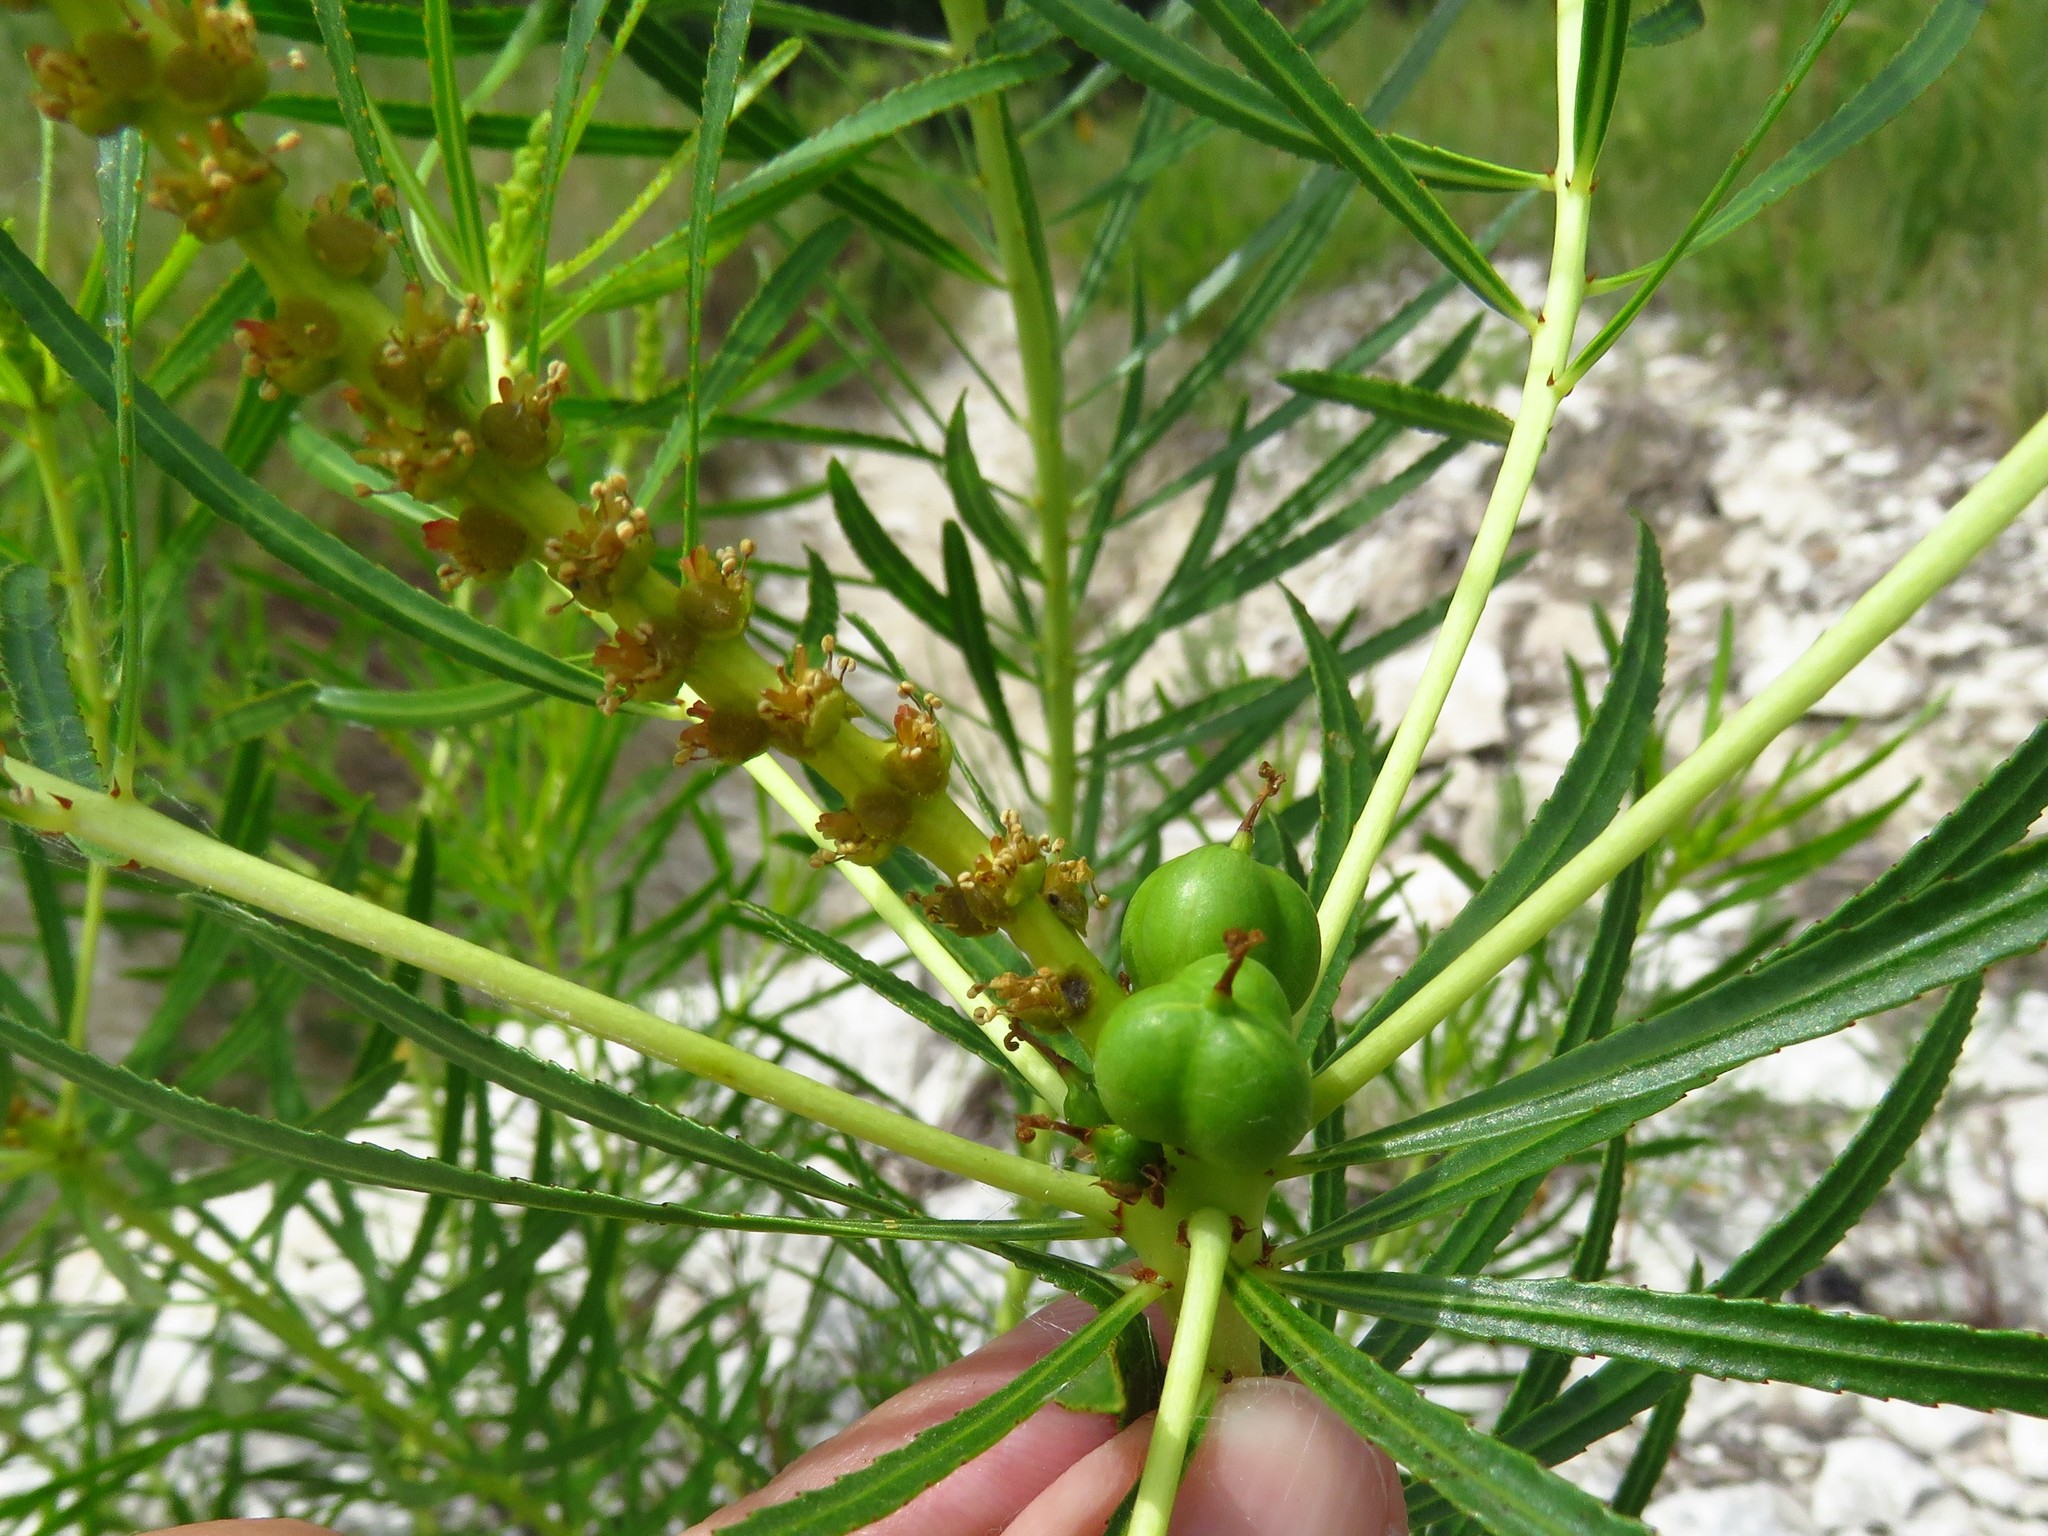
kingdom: Plantae
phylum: Tracheophyta
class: Magnoliopsida
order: Malpighiales
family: Euphorbiaceae
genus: Stillingia
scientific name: Stillingia texana
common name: Texas stillingia
